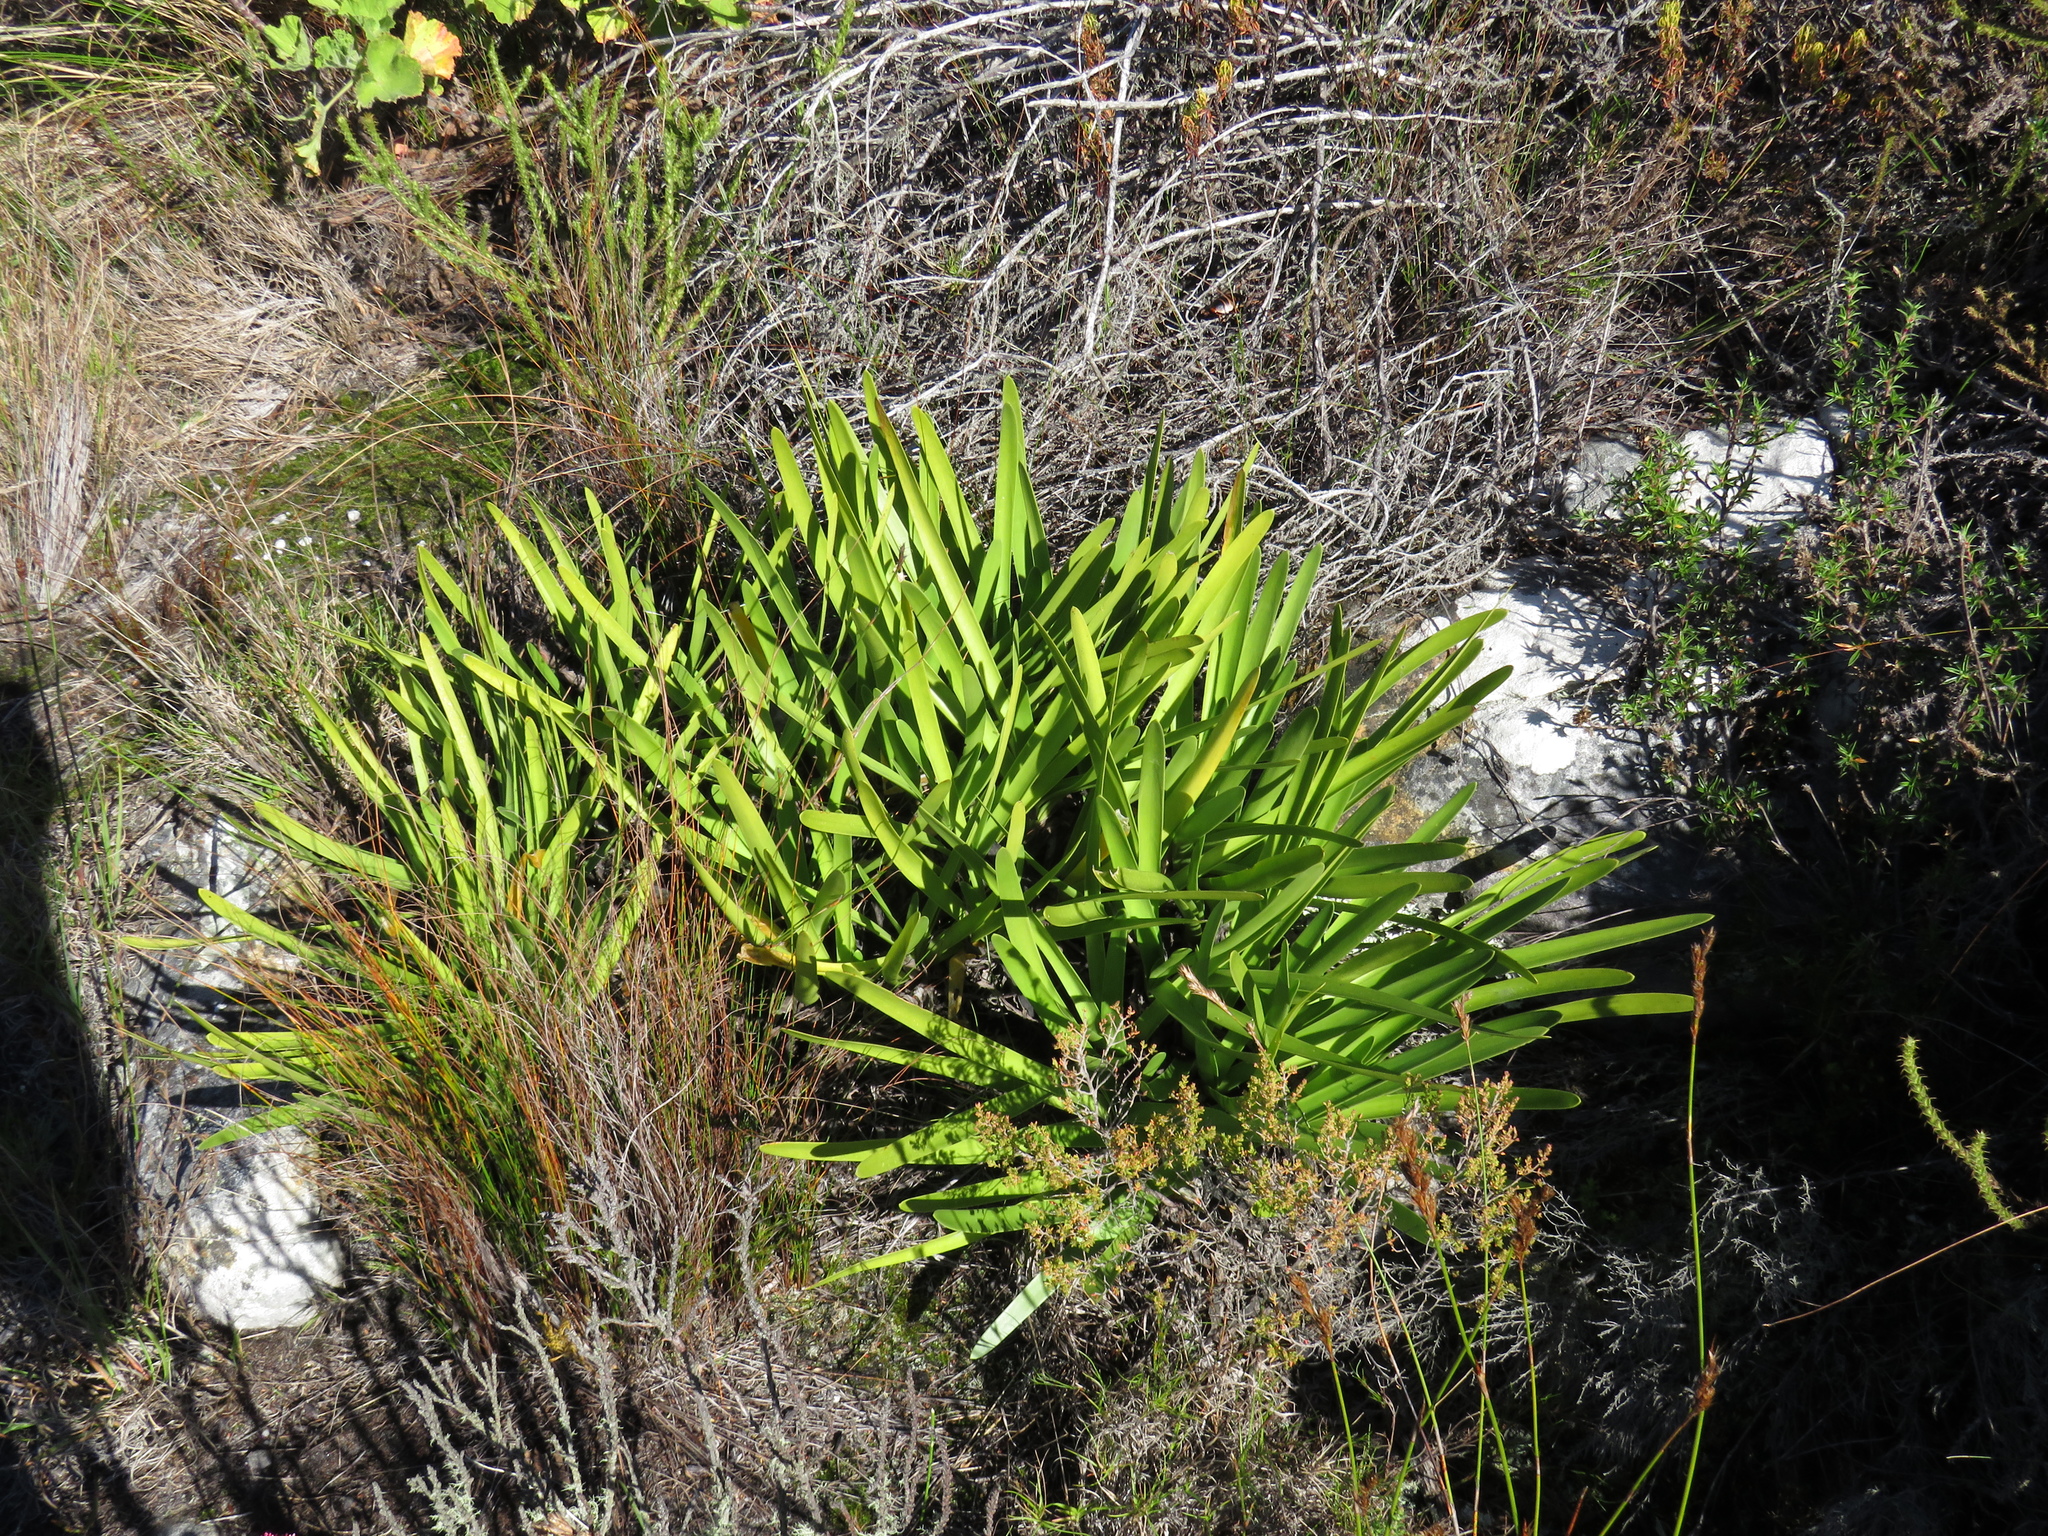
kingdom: Plantae
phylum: Tracheophyta
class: Liliopsida
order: Asparagales
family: Amaryllidaceae
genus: Agapanthus
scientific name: Agapanthus africanus
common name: Lily-of-the-nile
